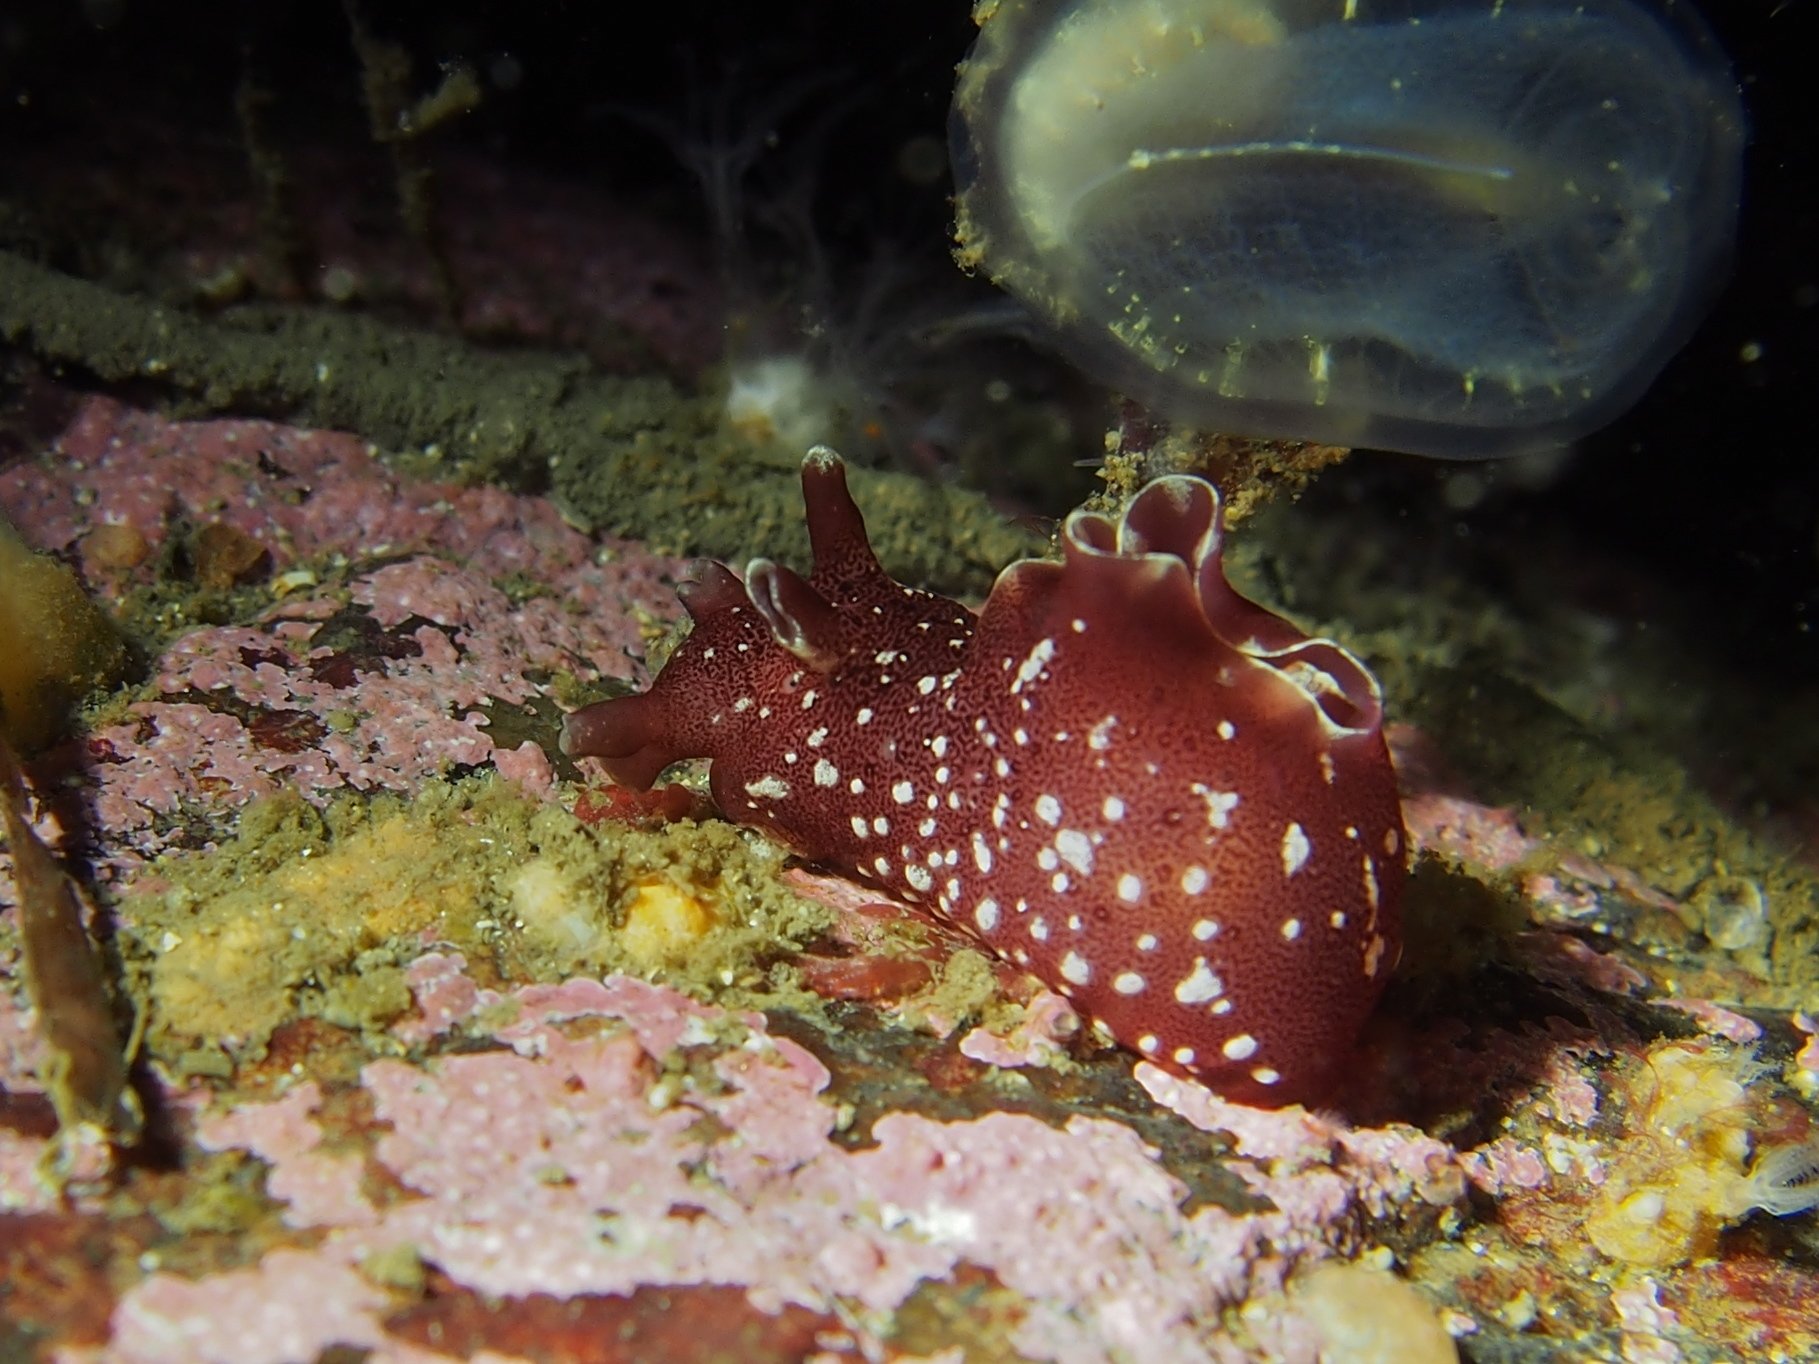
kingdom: Animalia
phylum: Mollusca
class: Gastropoda
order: Aplysiida
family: Aplysiidae
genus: Aplysia
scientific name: Aplysia punctata
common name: Common sea hare
